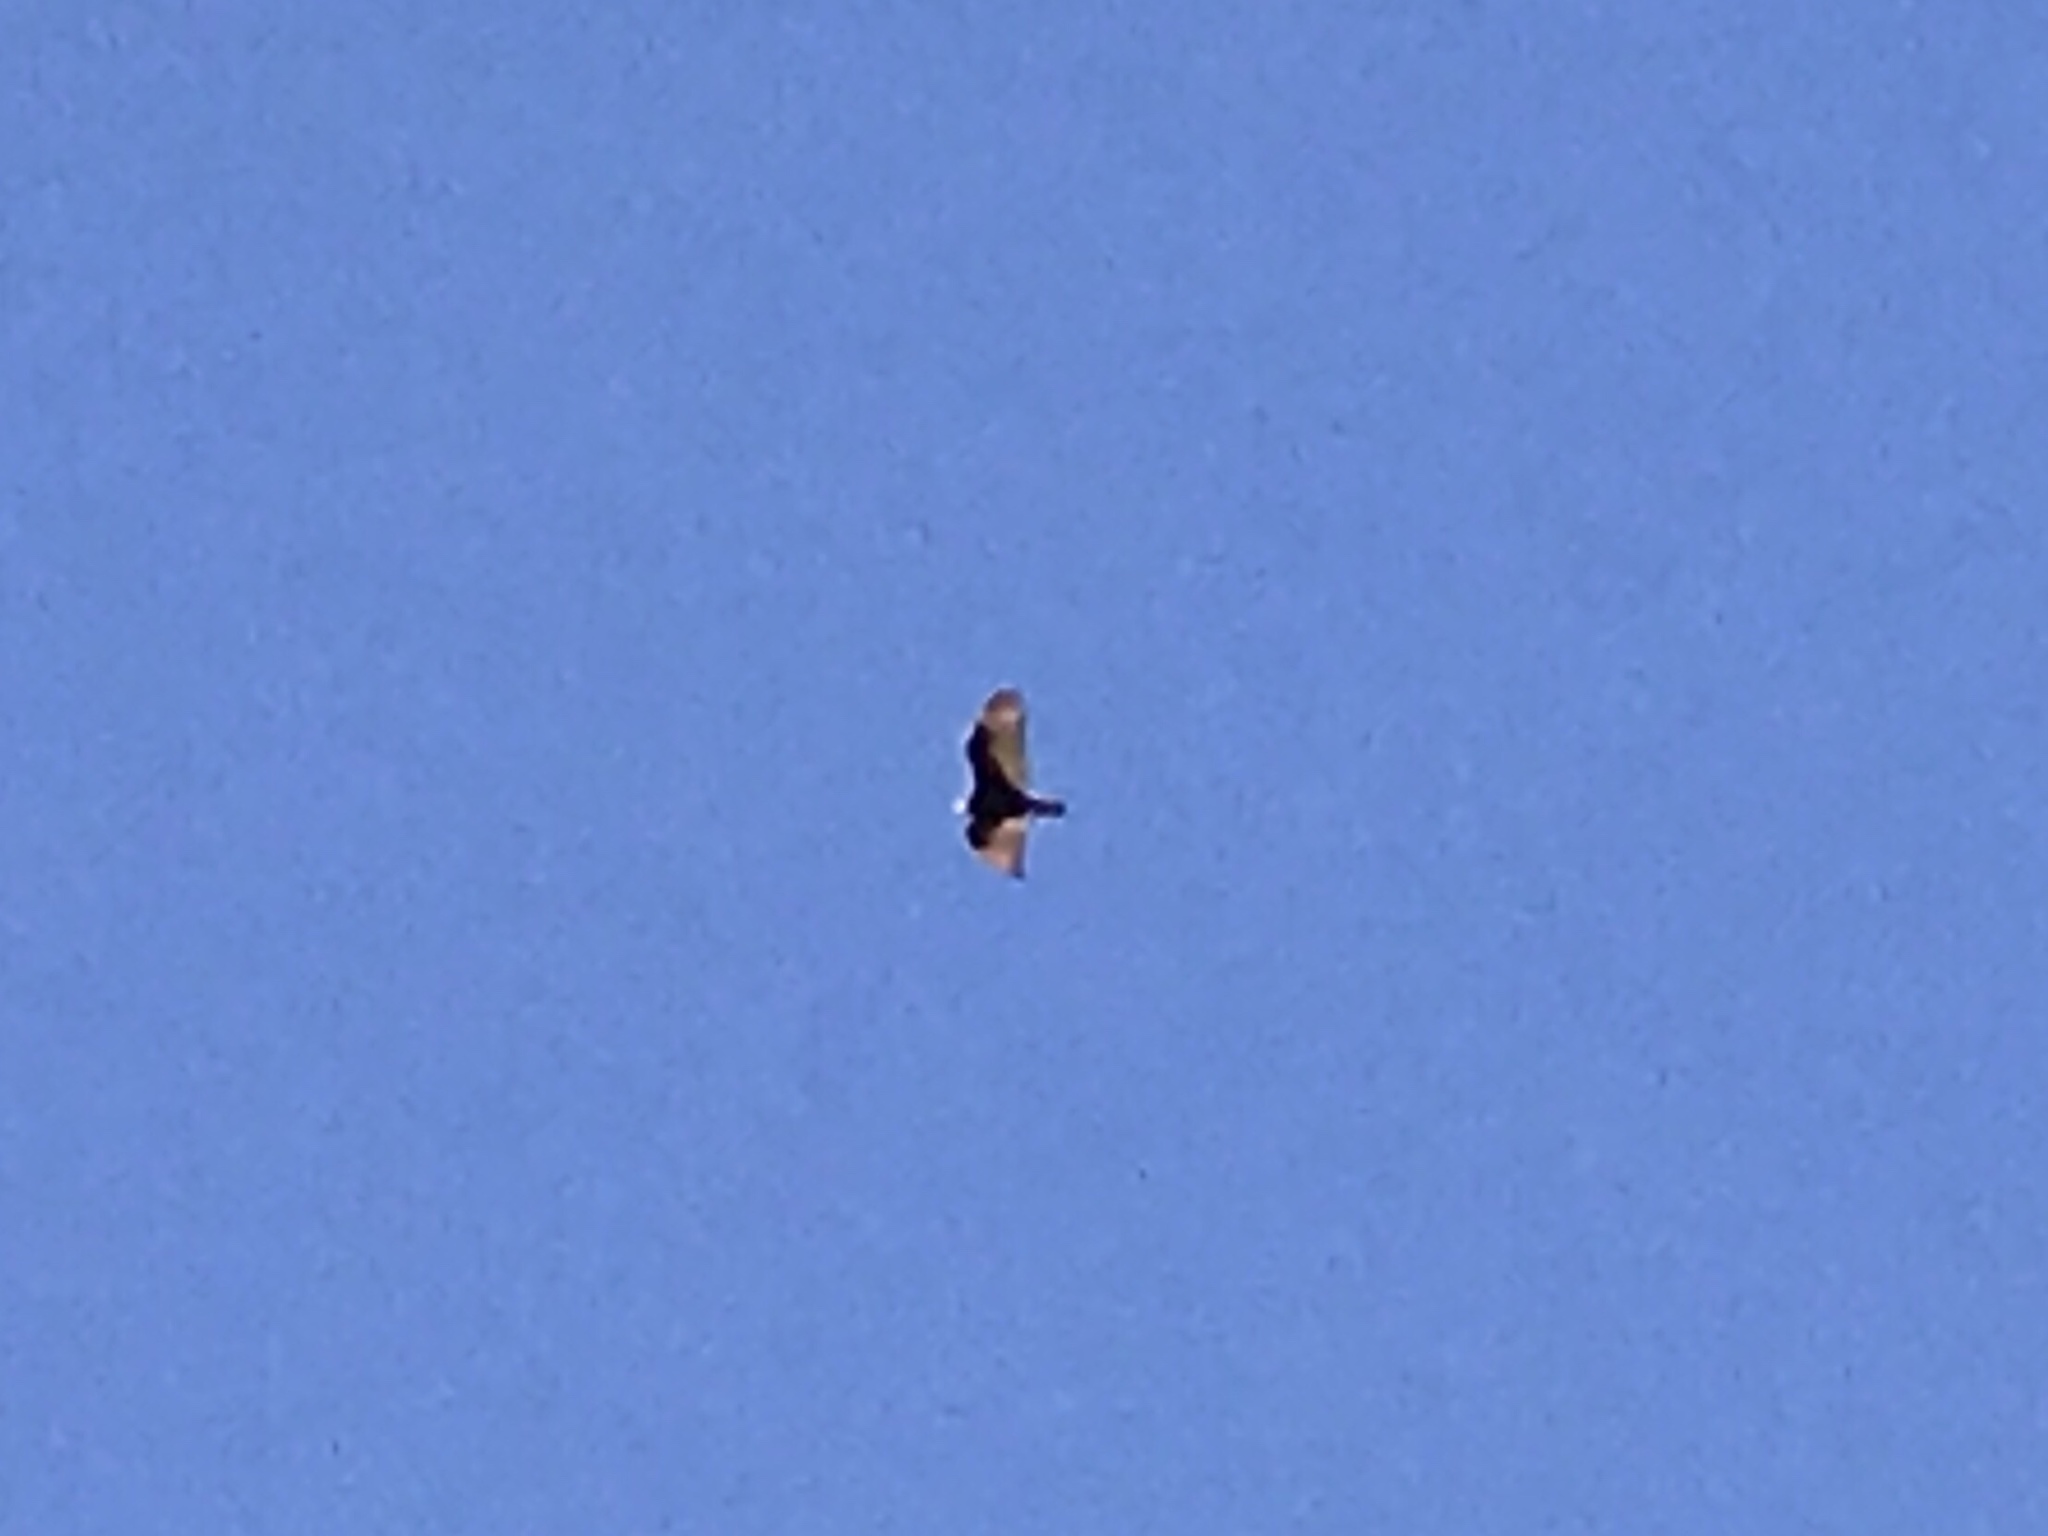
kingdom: Animalia
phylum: Chordata
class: Aves
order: Accipitriformes
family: Cathartidae
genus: Cathartes
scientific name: Cathartes aura
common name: Turkey vulture
